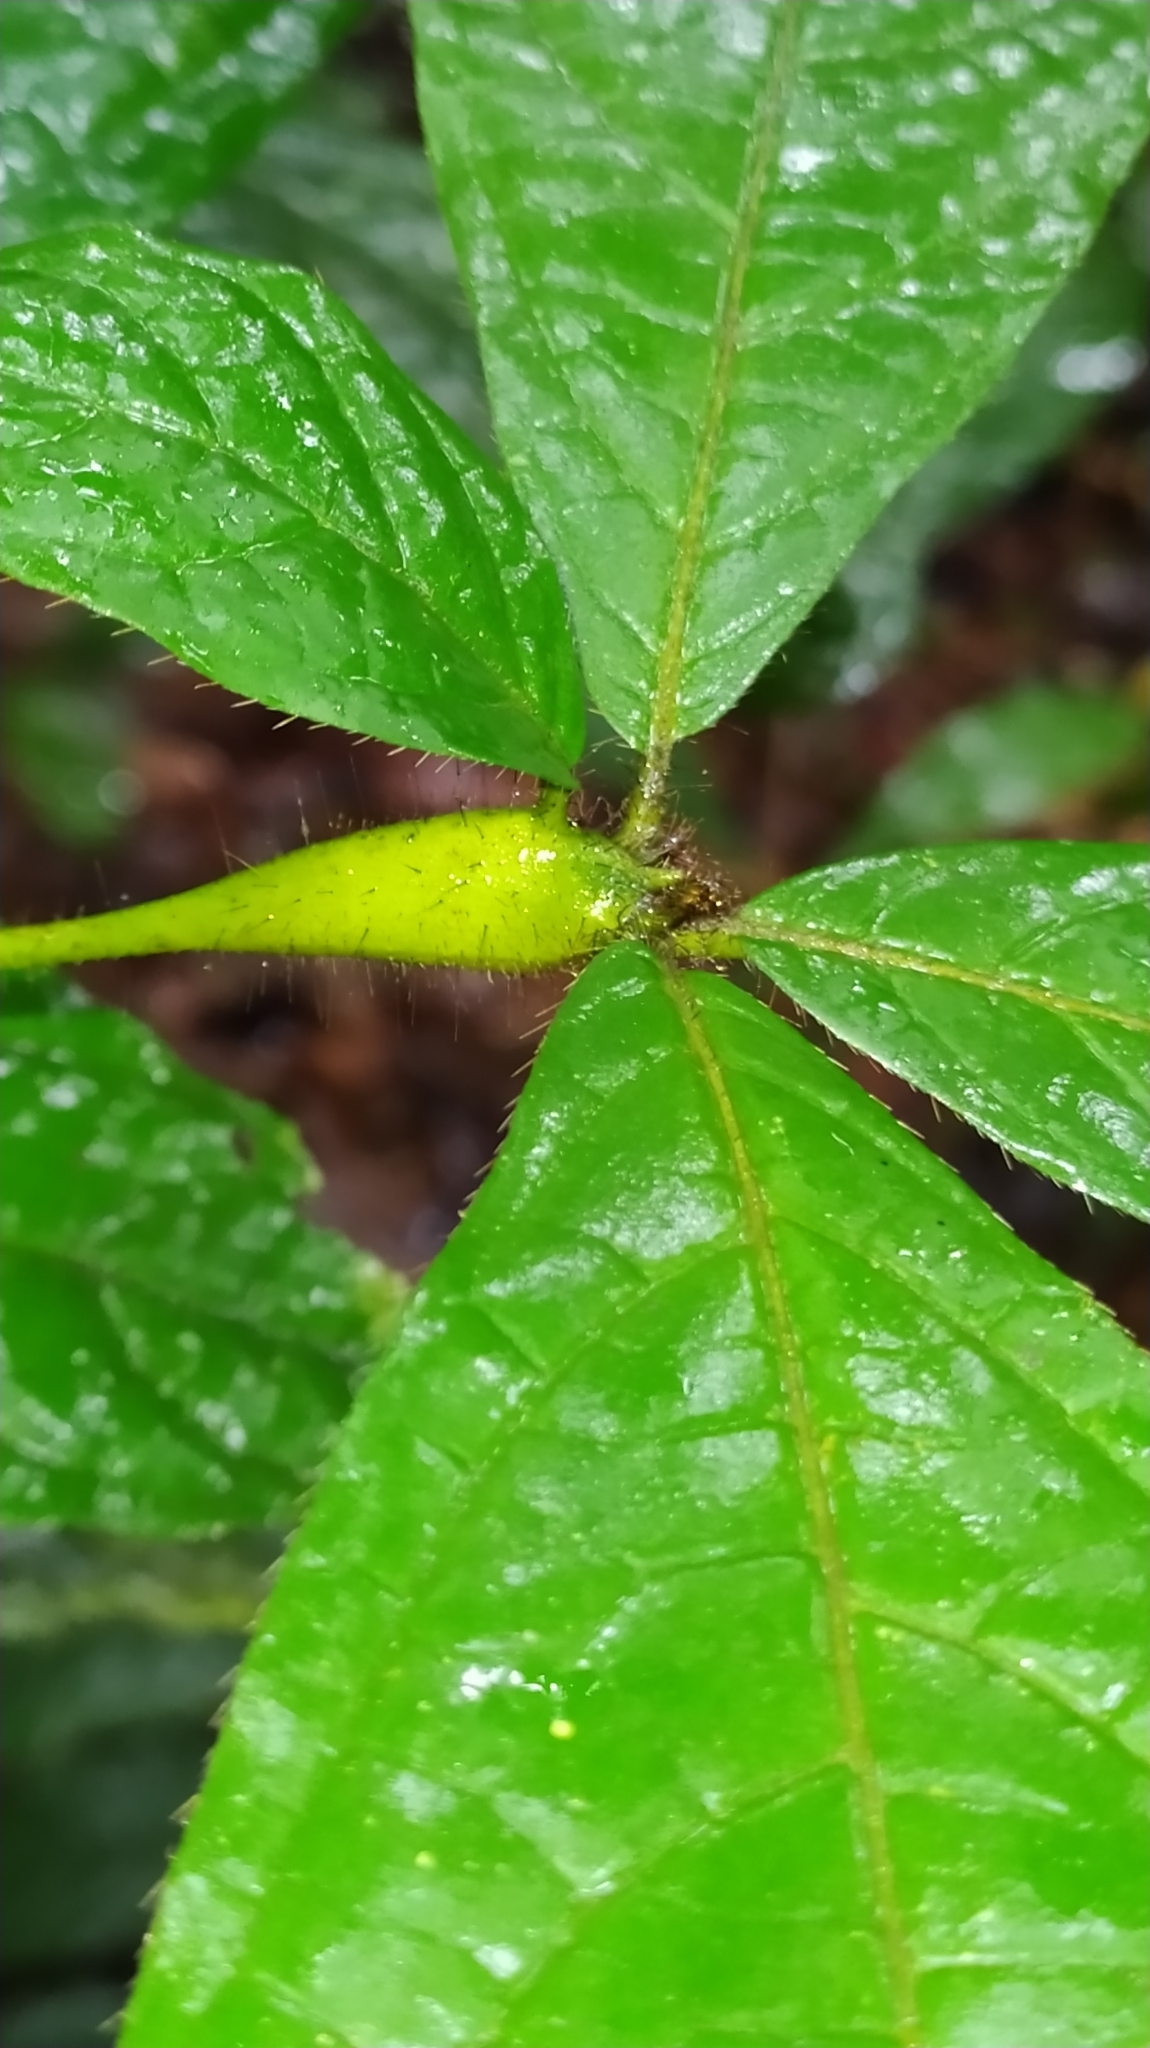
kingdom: Plantae
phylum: Tracheophyta
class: Magnoliopsida
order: Boraginales
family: Cordiaceae
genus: Cordia
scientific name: Cordia nodosa
